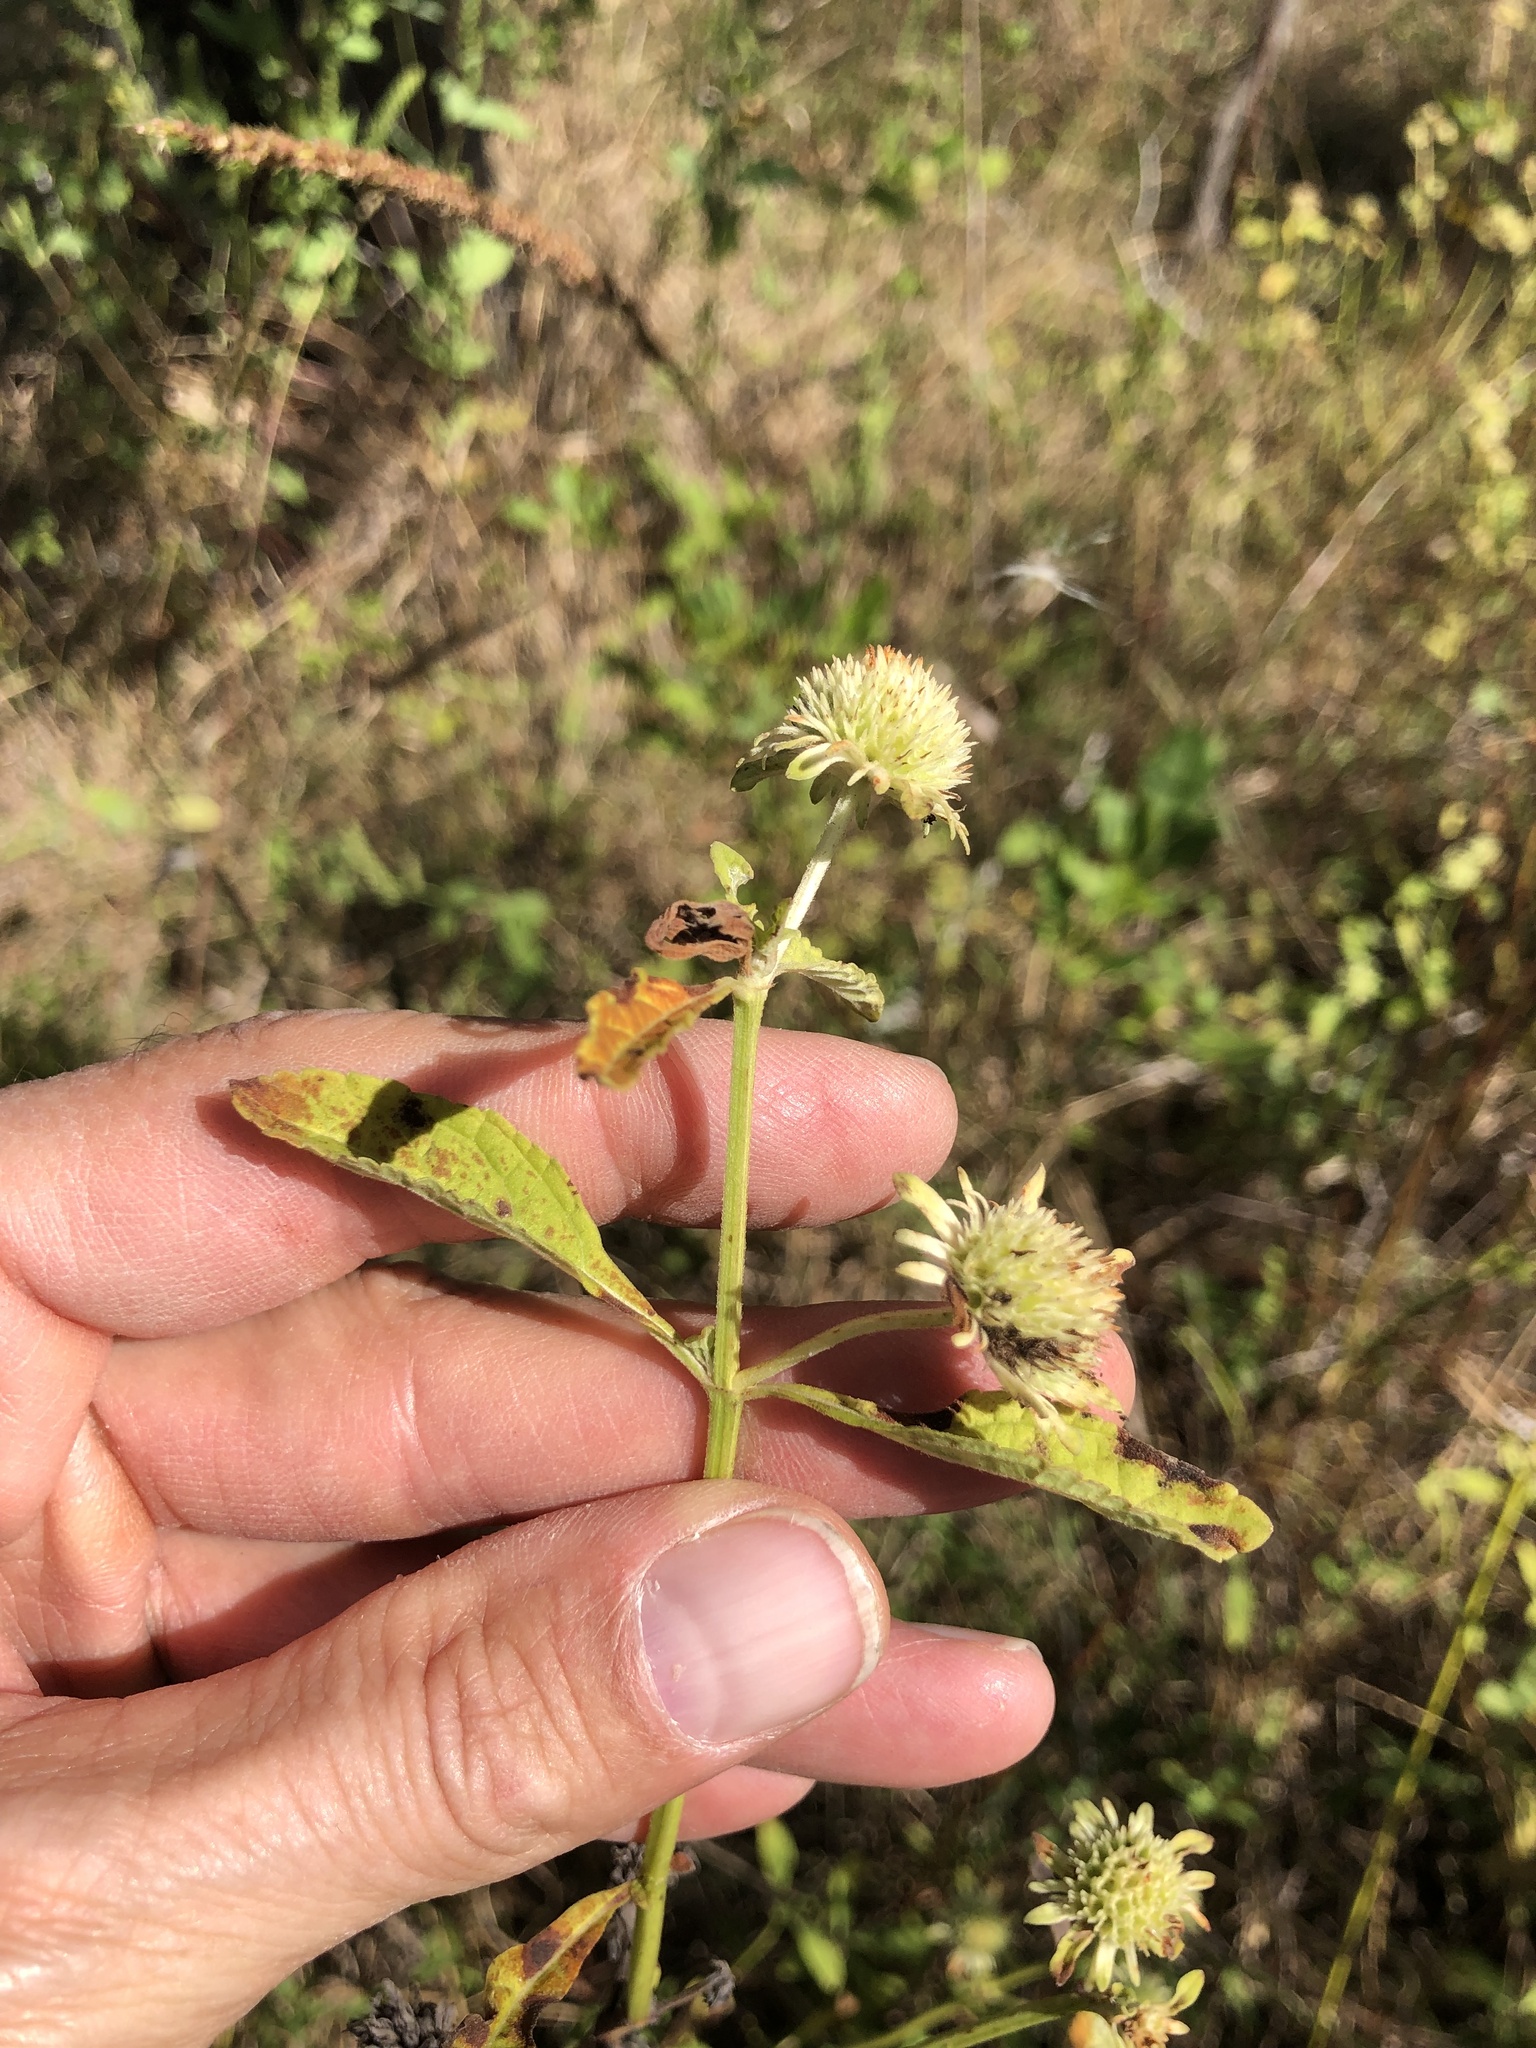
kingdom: Plantae
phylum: Tracheophyta
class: Magnoliopsida
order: Lamiales
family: Lamiaceae
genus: Hyptis
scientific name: Hyptis alata
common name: Cluster bush-mint
